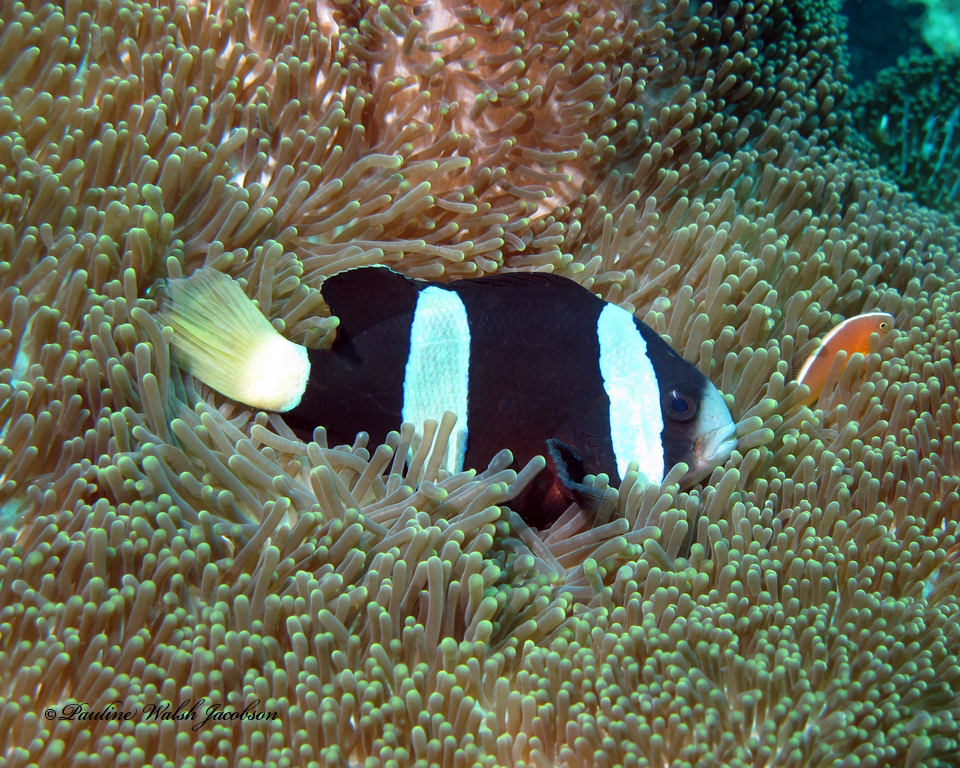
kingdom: Animalia
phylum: Chordata
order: Perciformes
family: Pomacentridae
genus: Amphiprion
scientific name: Amphiprion clarkii
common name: Clark's anemonefish
